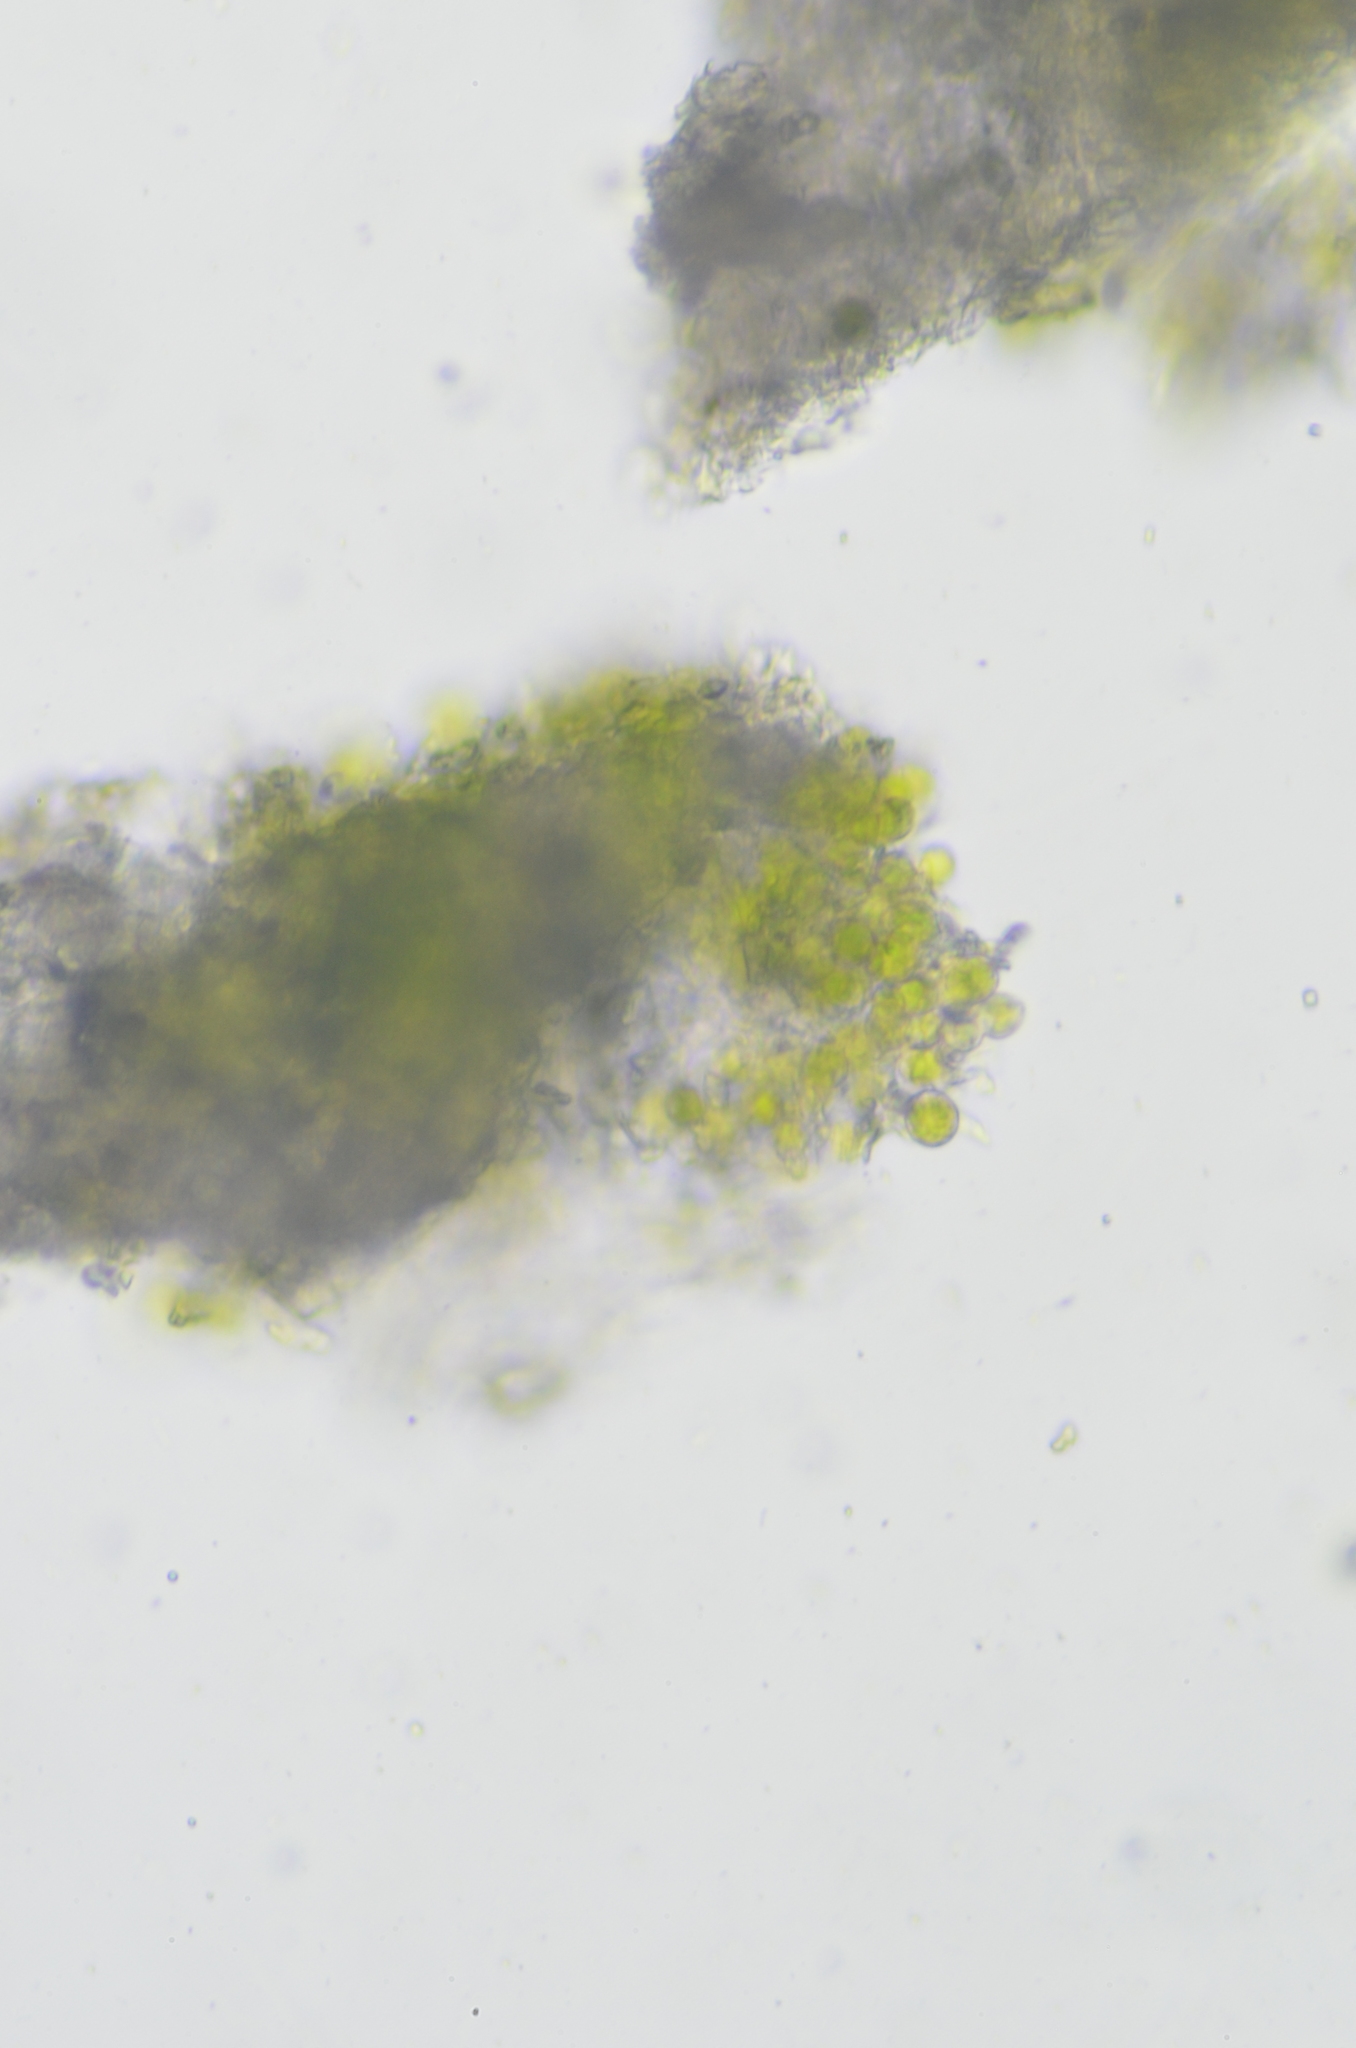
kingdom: Fungi
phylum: Ascomycota
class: Lecanoromycetes
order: Lecanorales
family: Ramboldiaceae
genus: Ramboldia
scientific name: Ramboldia gowardiana
